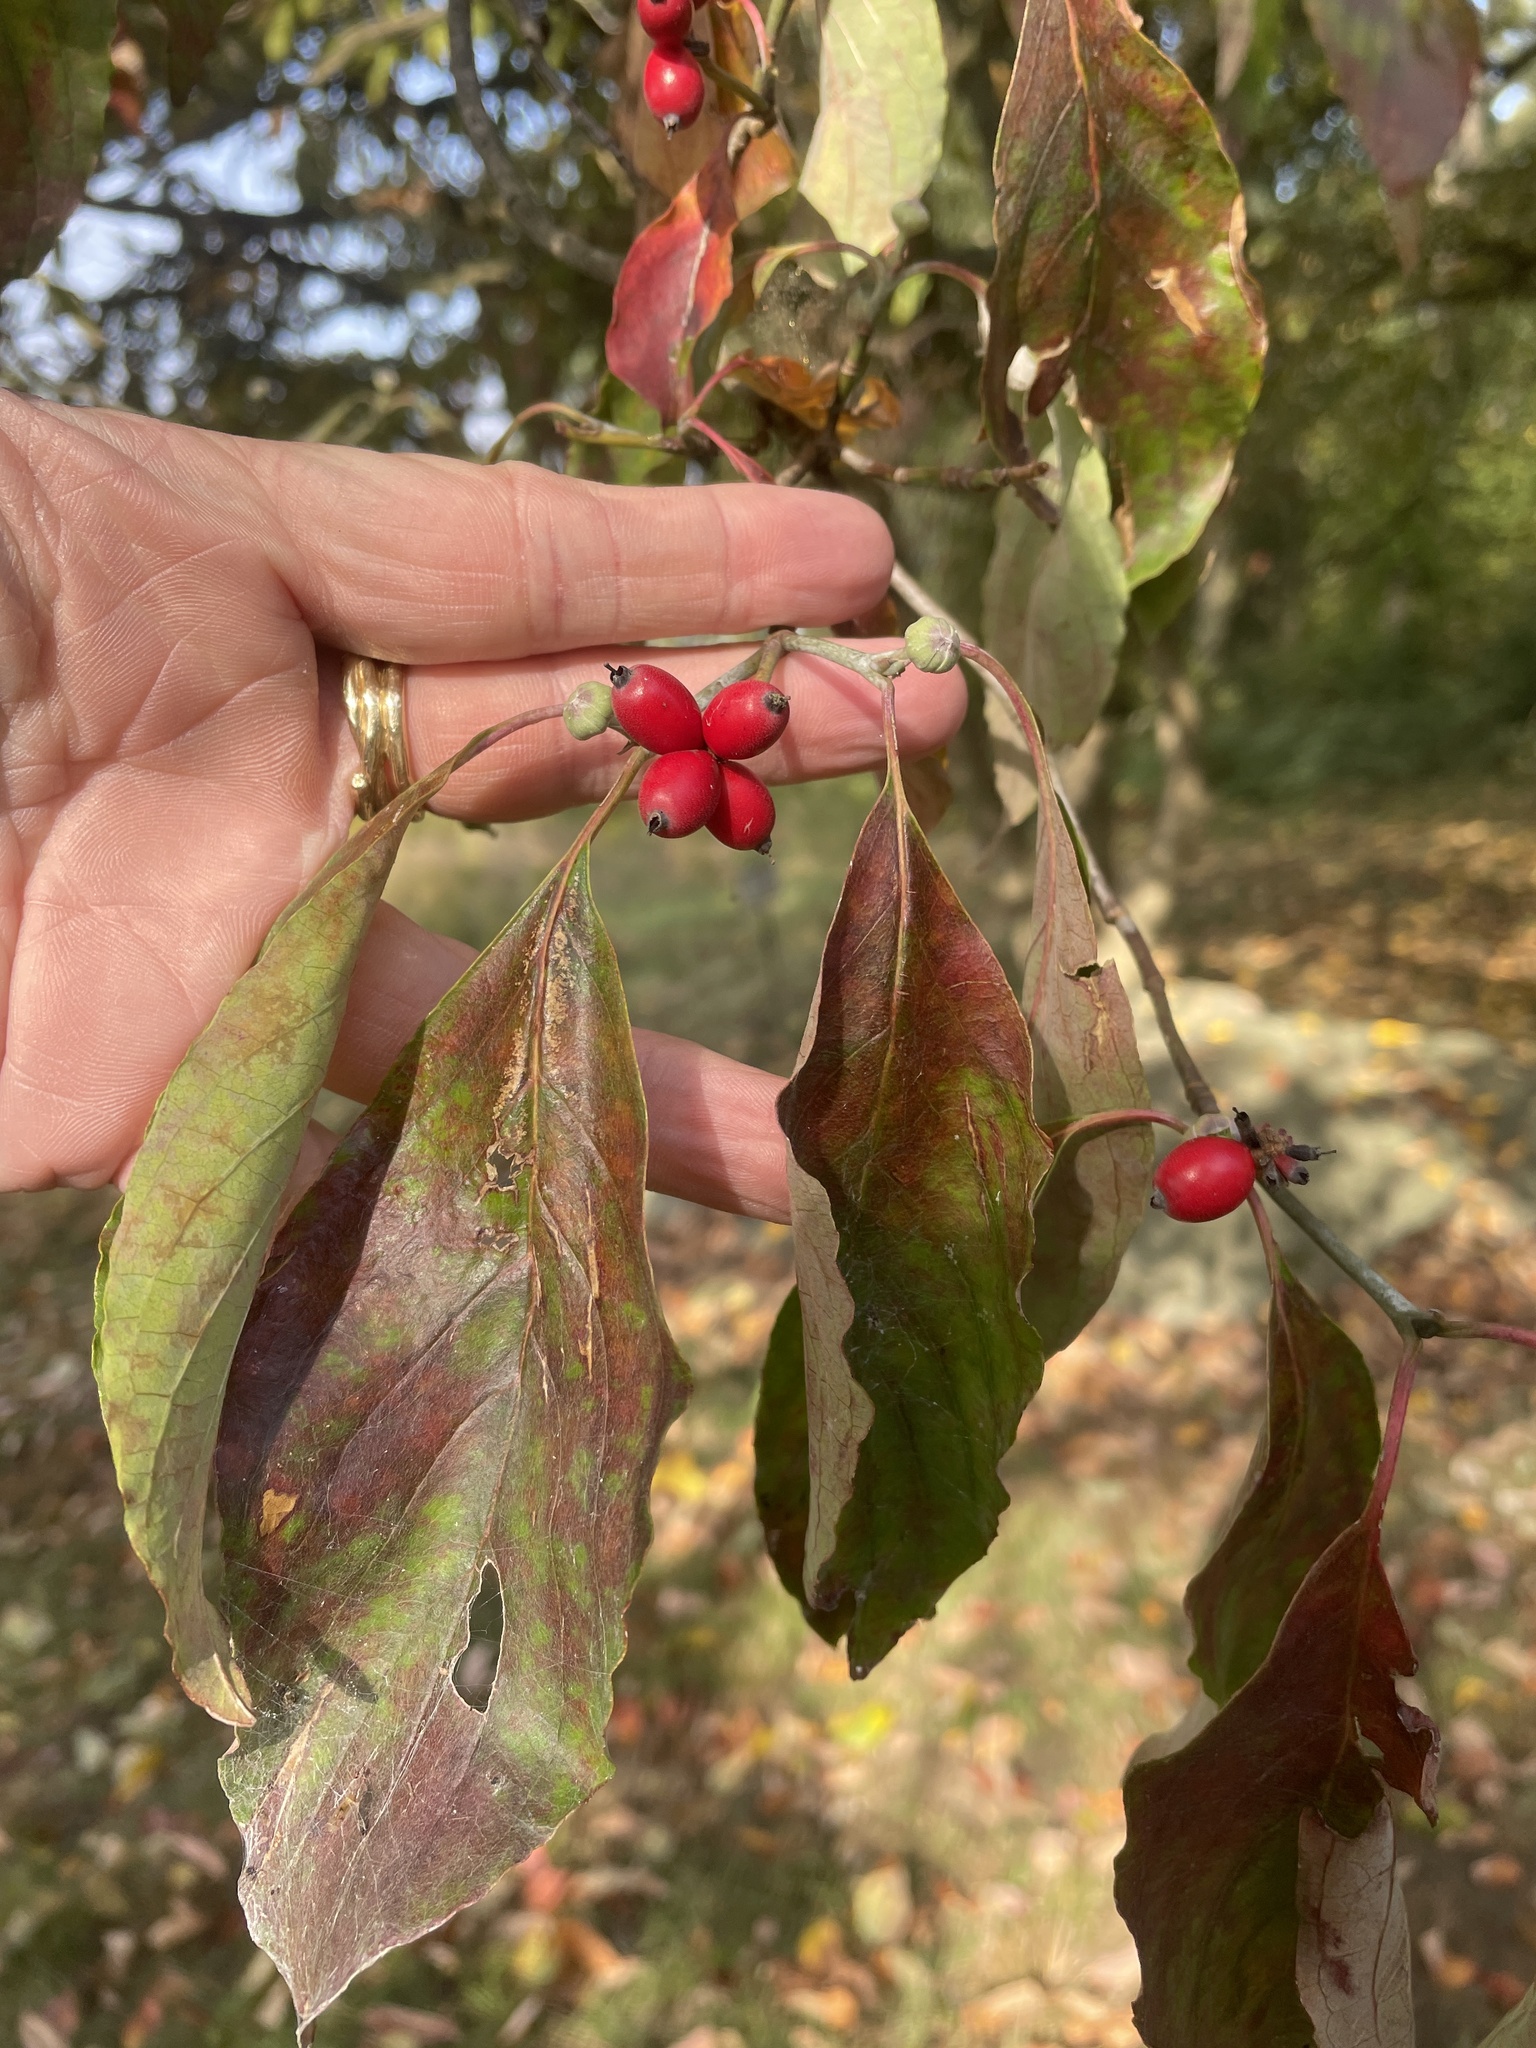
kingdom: Plantae
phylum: Tracheophyta
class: Magnoliopsida
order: Cornales
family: Cornaceae
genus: Cornus
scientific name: Cornus florida
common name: Flowering dogwood
